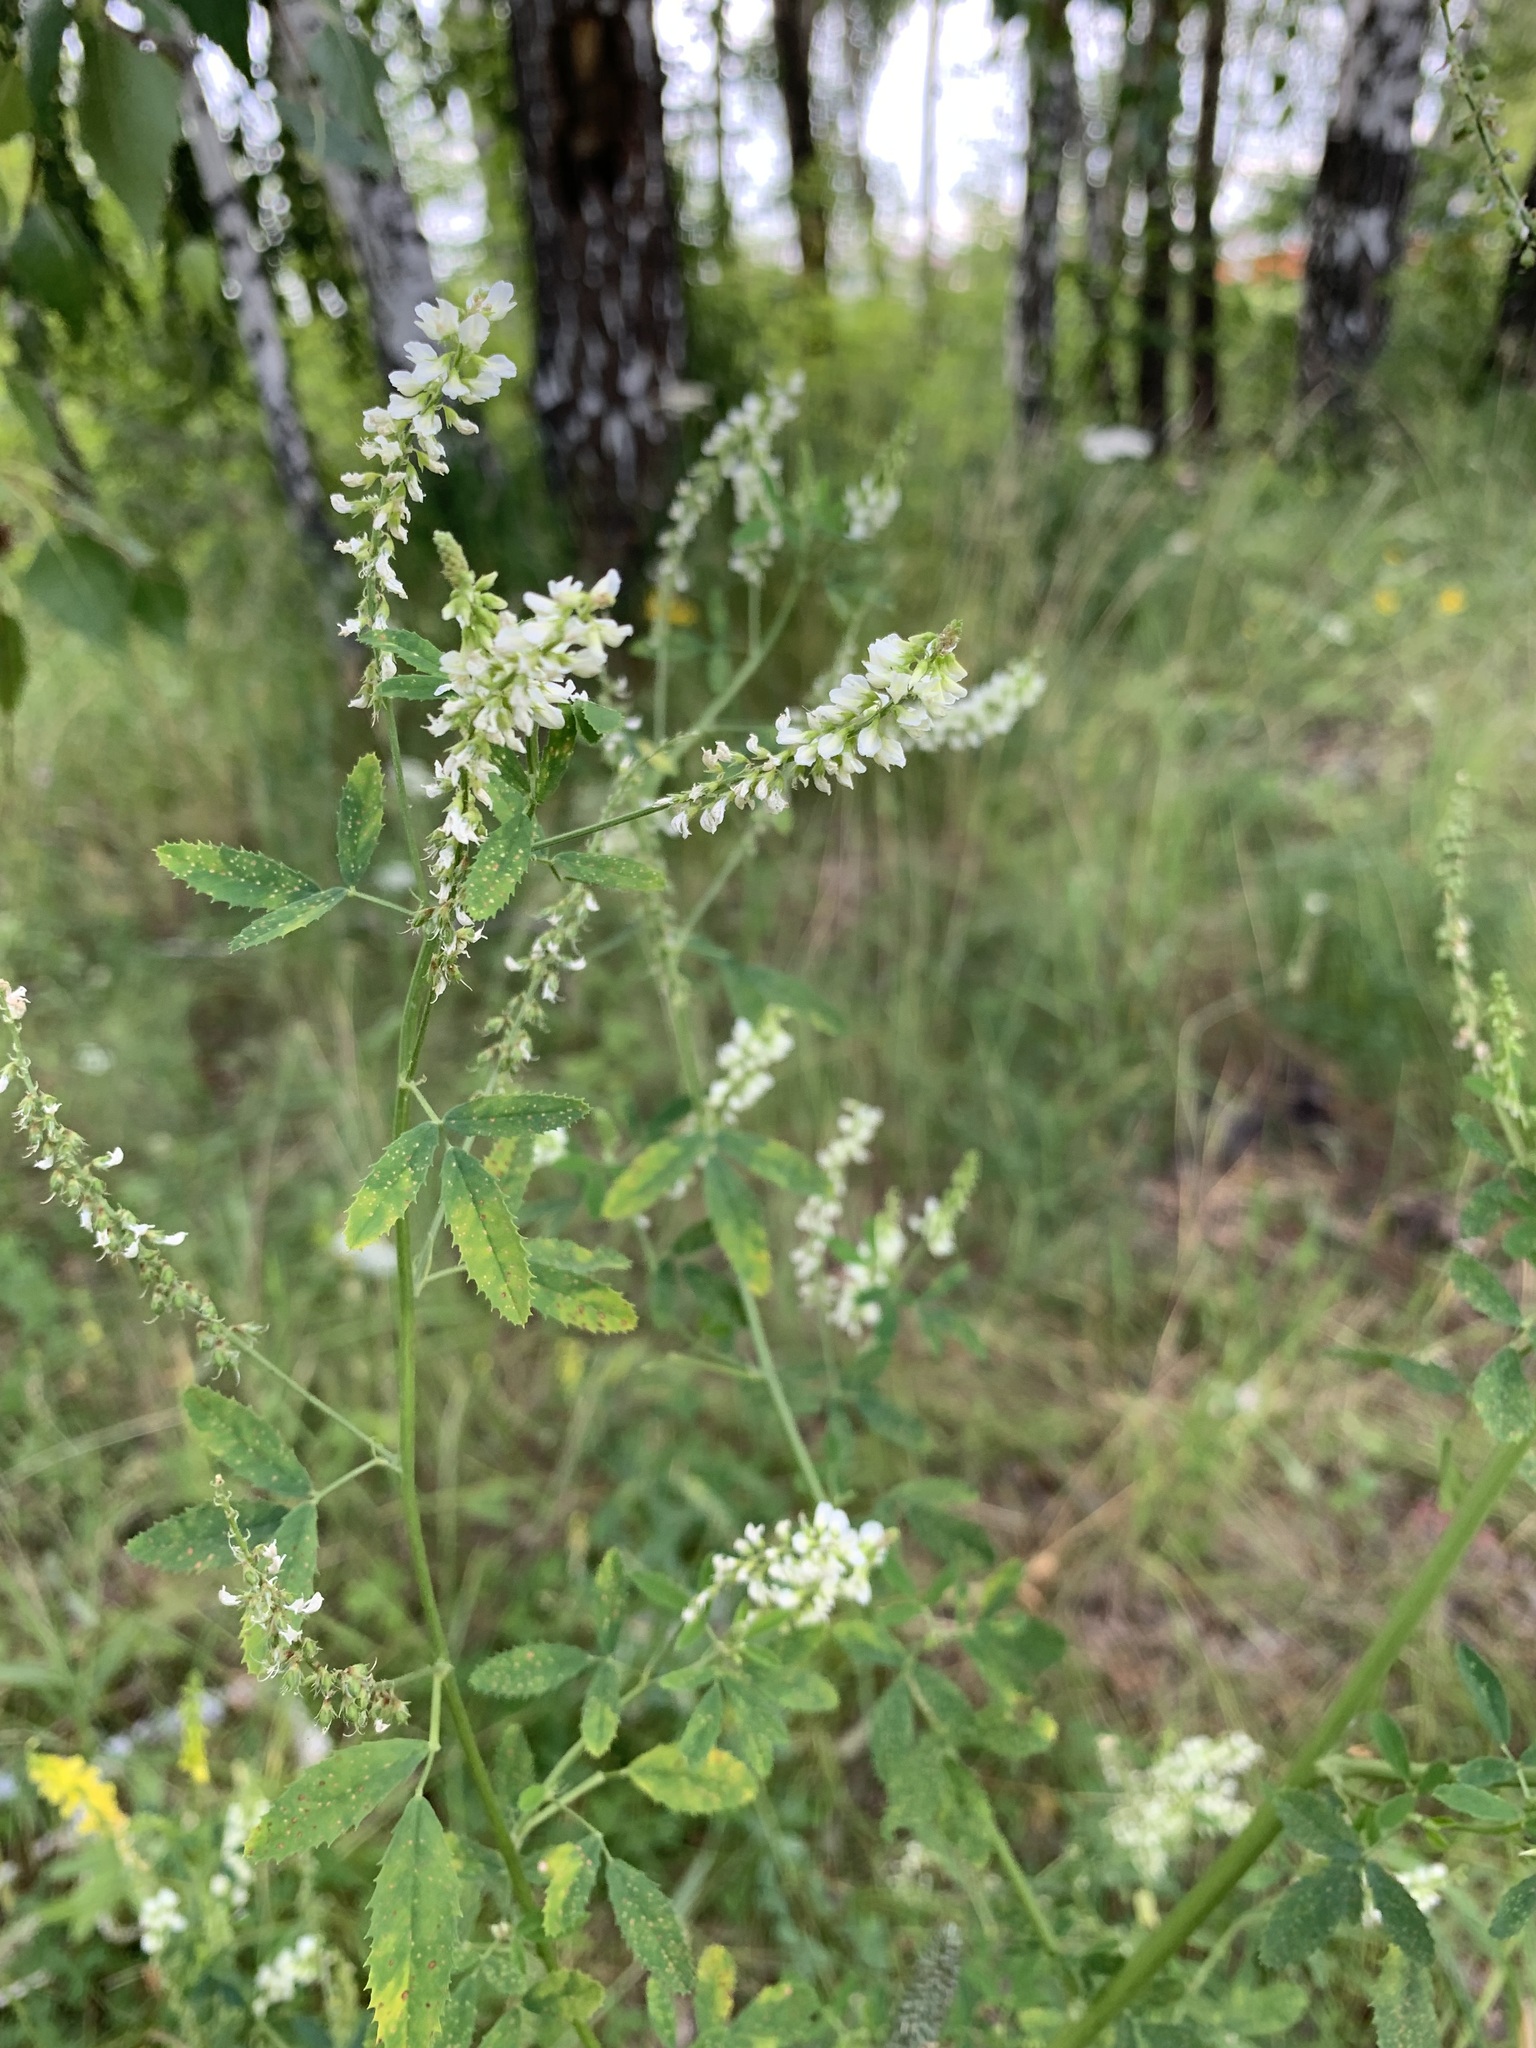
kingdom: Plantae
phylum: Tracheophyta
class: Magnoliopsida
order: Fabales
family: Fabaceae
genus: Melilotus
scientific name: Melilotus albus
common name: White melilot
